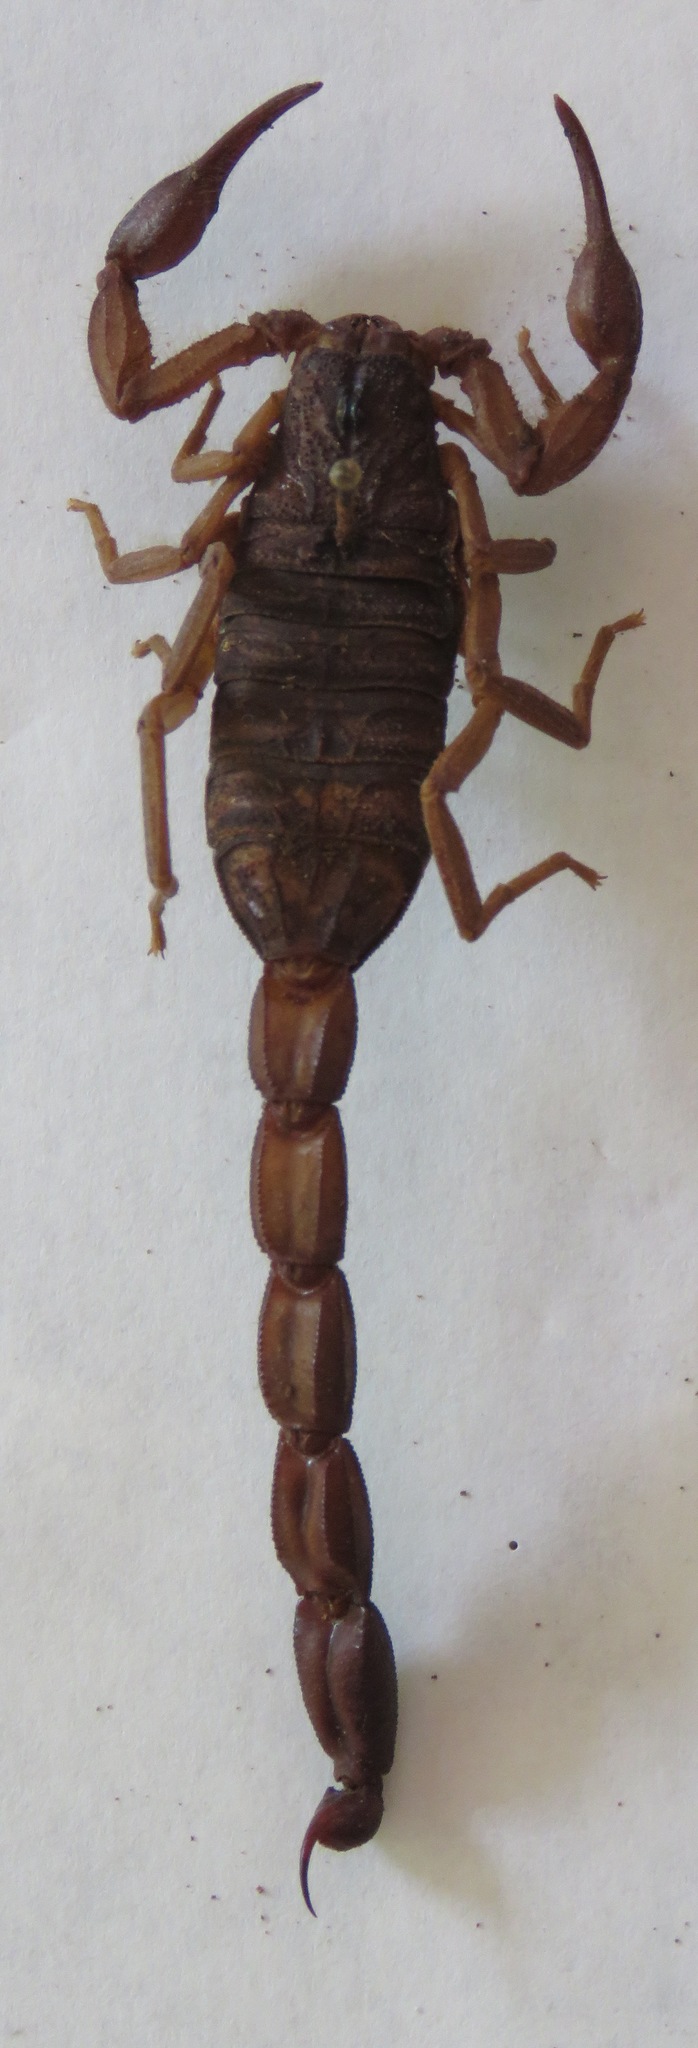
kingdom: Animalia
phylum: Arthropoda
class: Arachnida
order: Scorpiones
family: Buthidae
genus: Centruroides
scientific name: Centruroides edwardsii
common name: Scorpions
